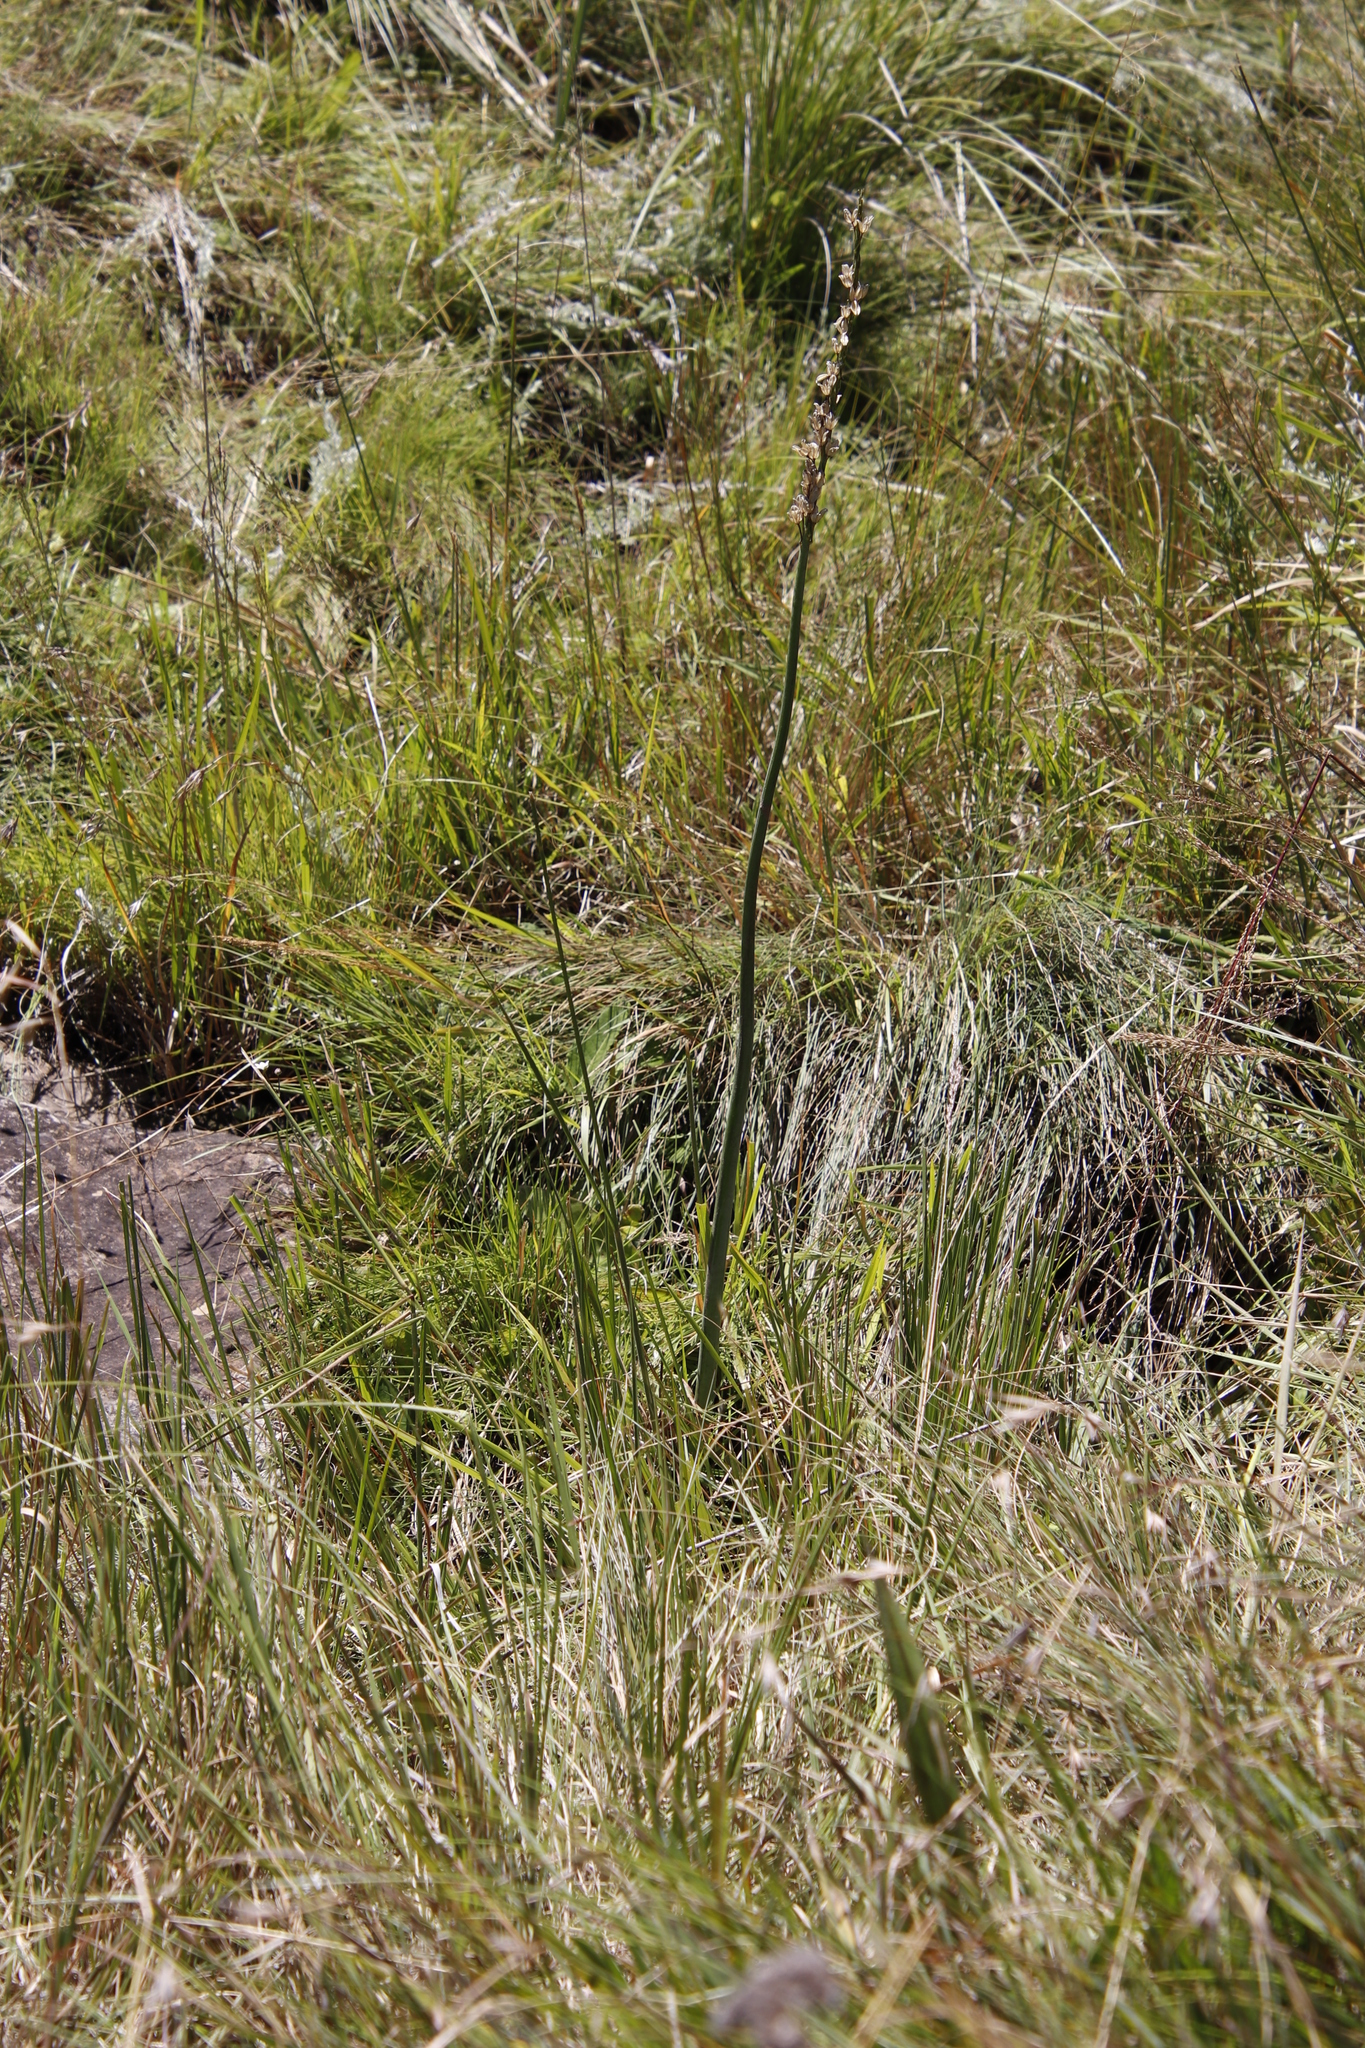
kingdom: Plantae
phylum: Tracheophyta
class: Liliopsida
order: Asparagales
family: Asparagaceae
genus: Drimia
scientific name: Drimia macrocentra
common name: Natal slangkop
